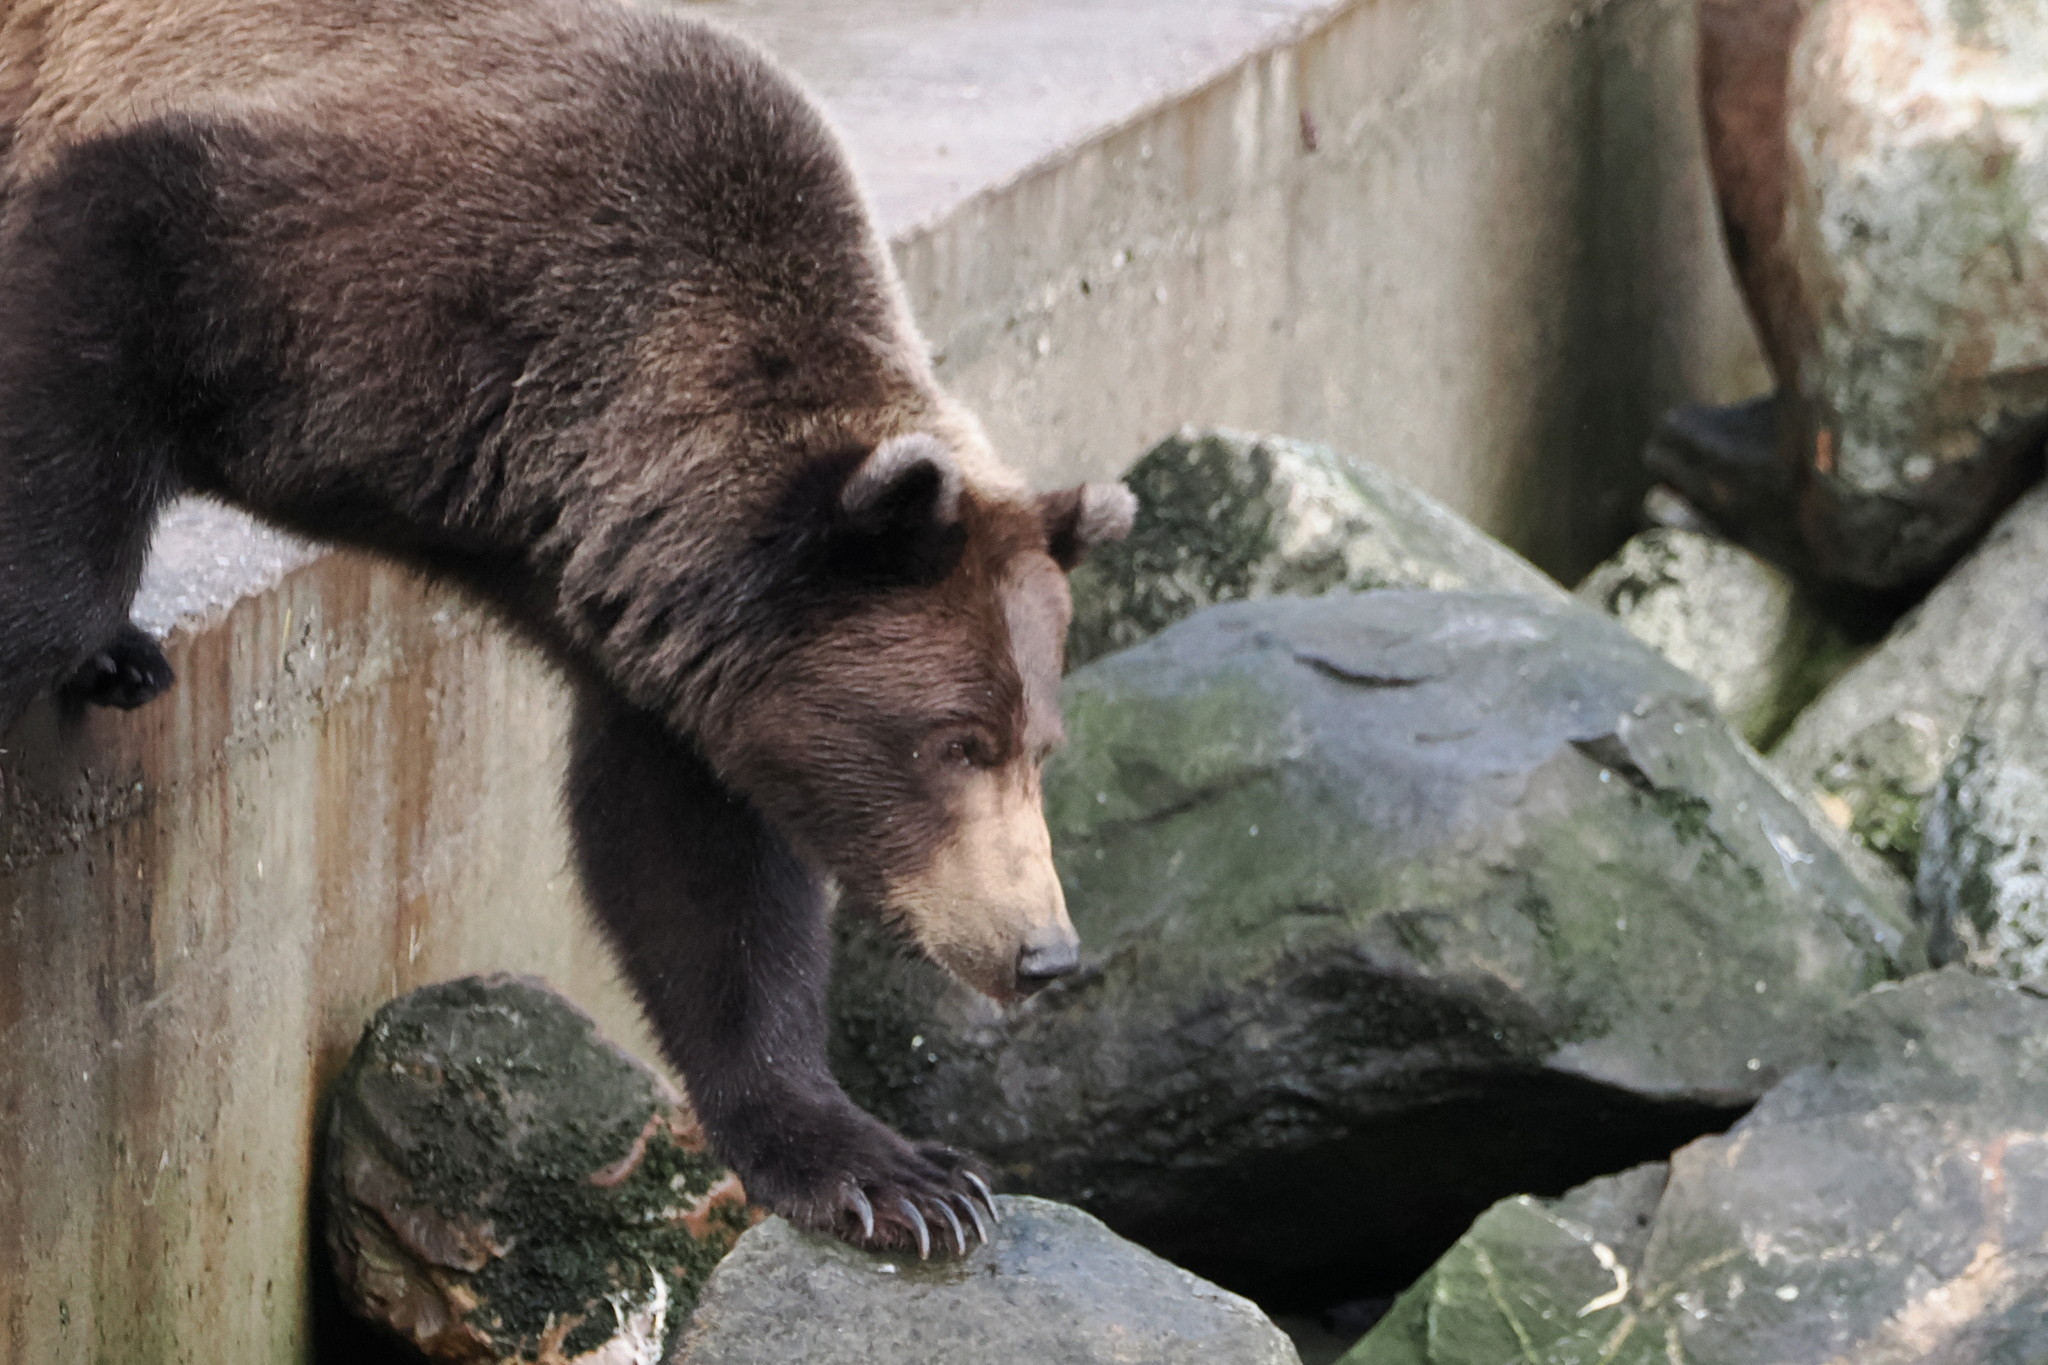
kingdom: Animalia
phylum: Chordata
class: Mammalia
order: Carnivora
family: Ursidae
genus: Ursus
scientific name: Ursus arctos
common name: Brown bear
